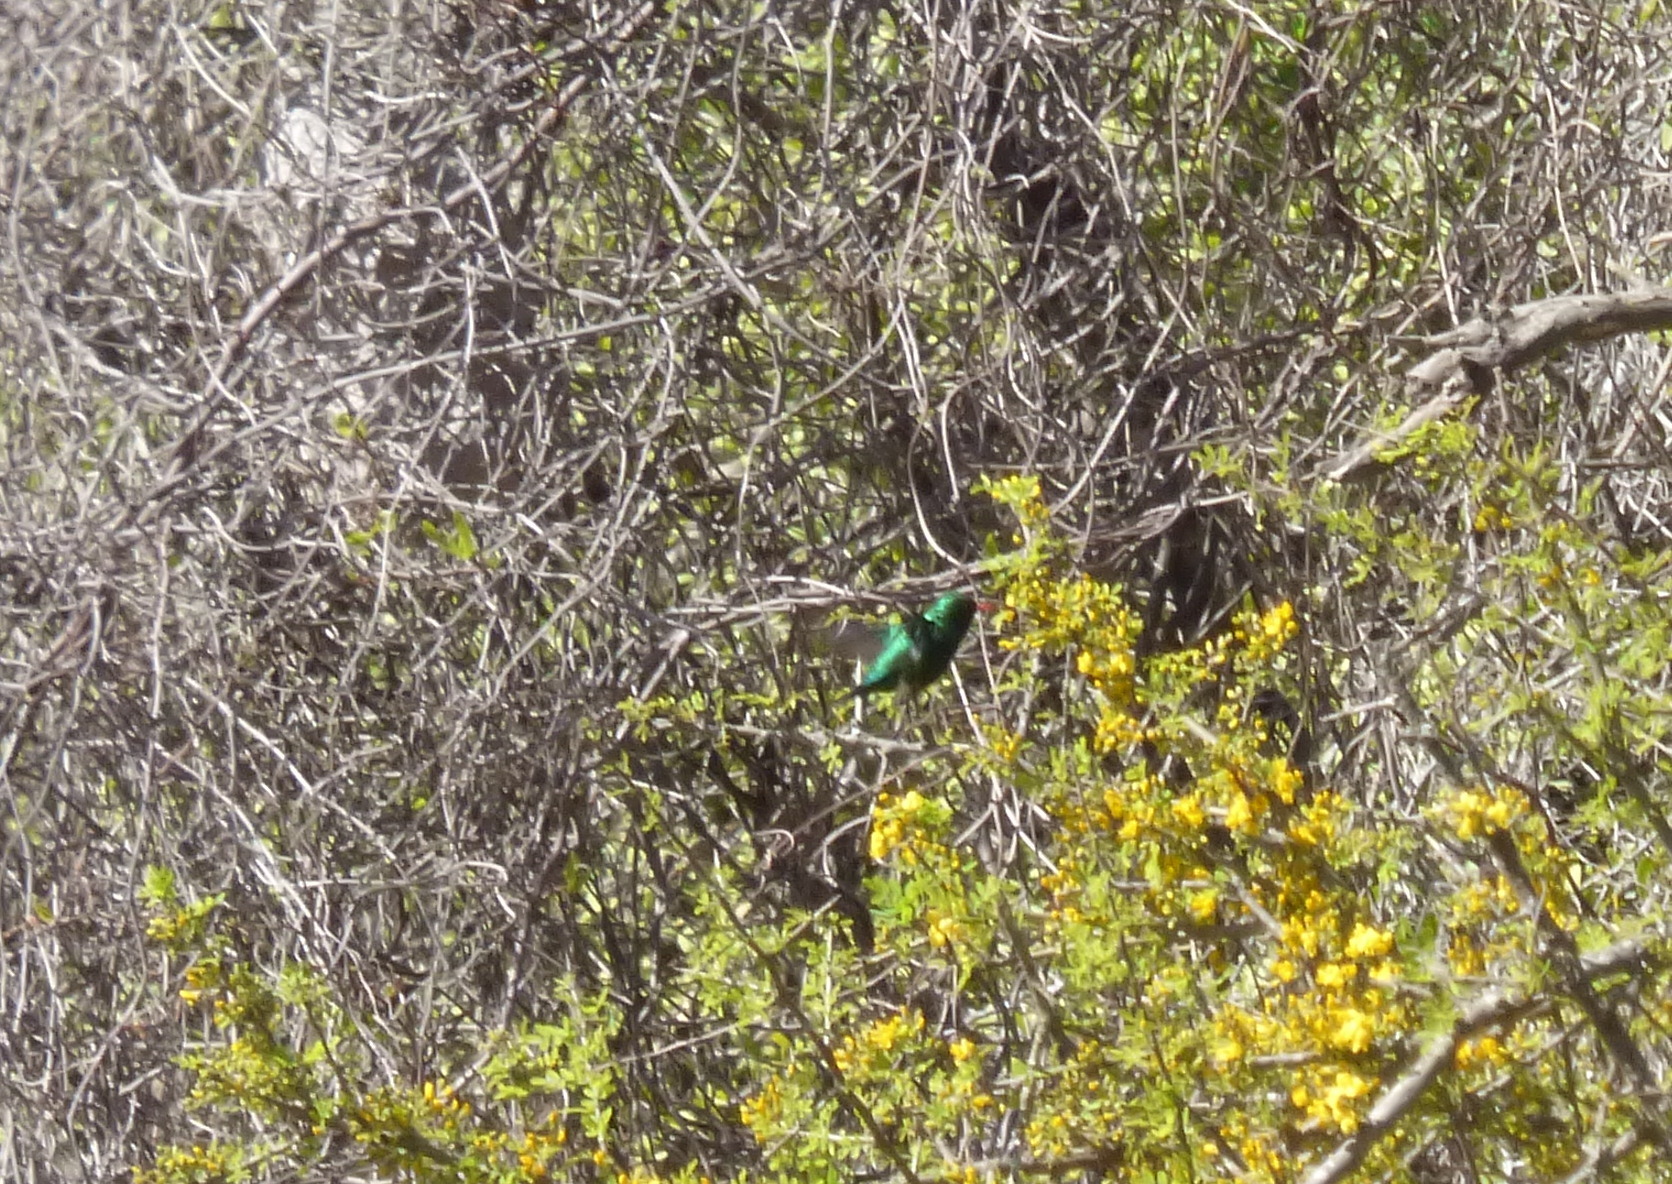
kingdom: Animalia
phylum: Chordata
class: Aves
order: Apodiformes
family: Trochilidae
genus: Chlorostilbon
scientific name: Chlorostilbon lucidus
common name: Glittering-bellied emerald
